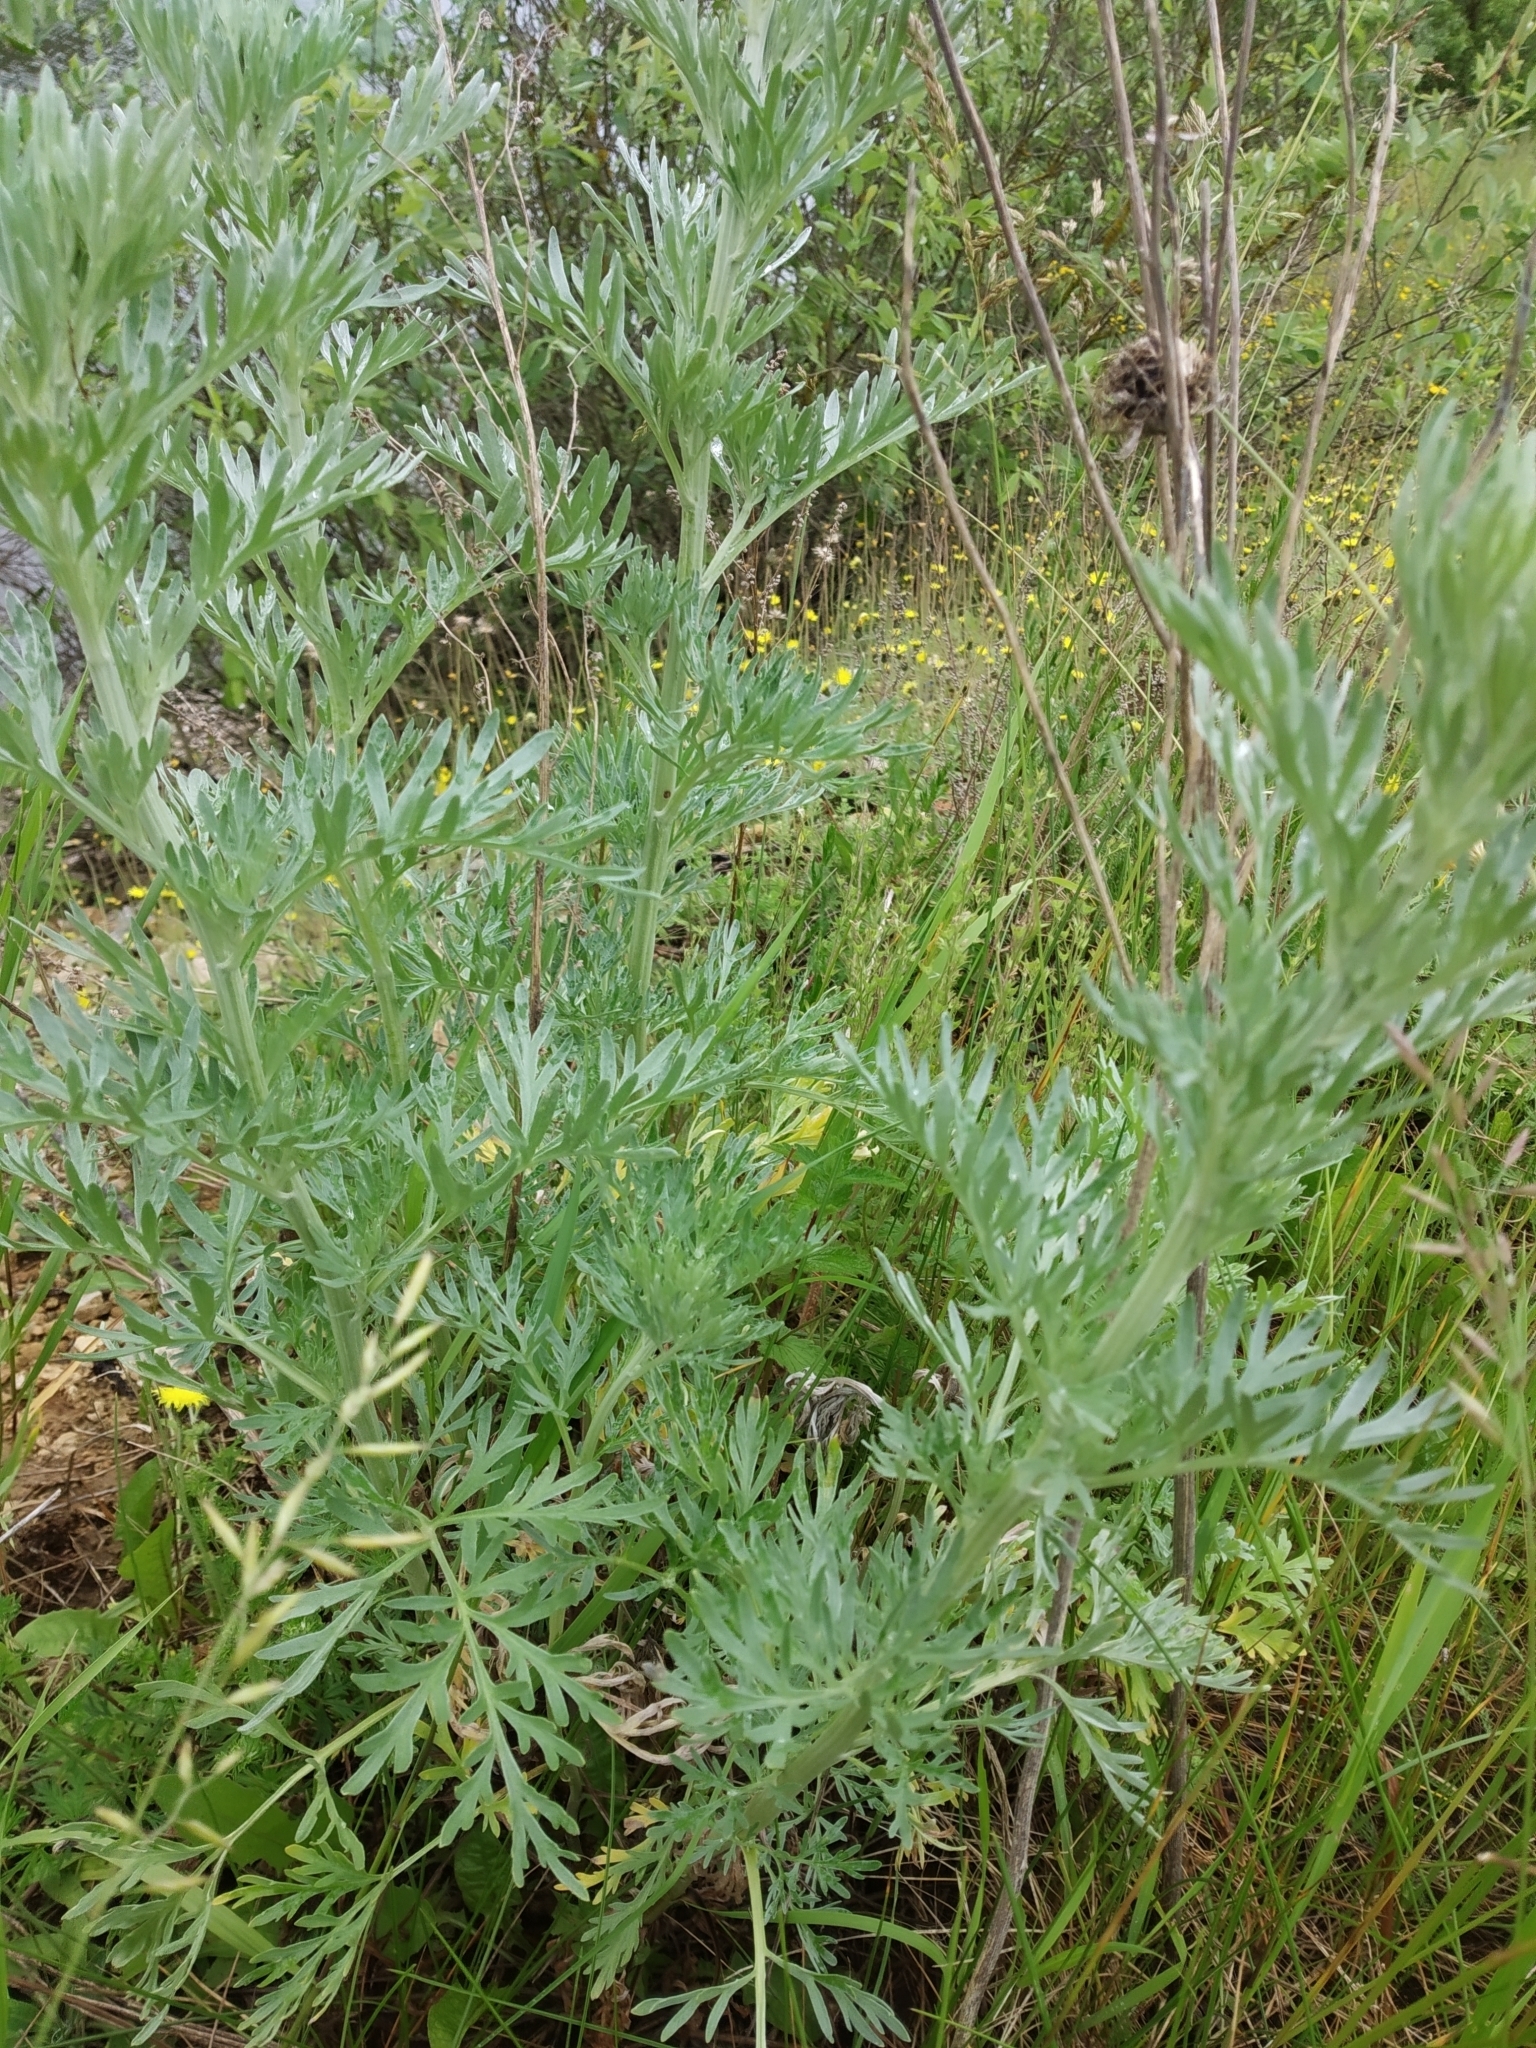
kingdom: Plantae
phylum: Tracheophyta
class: Magnoliopsida
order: Asterales
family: Asteraceae
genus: Artemisia
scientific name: Artemisia absinthium
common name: Wormwood
